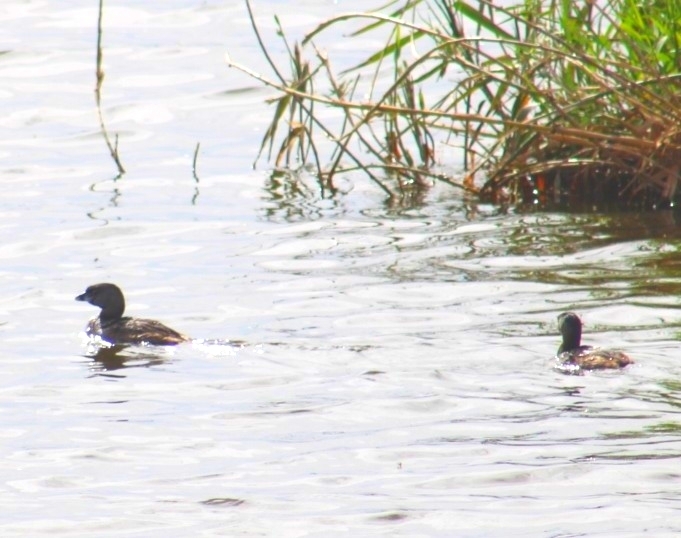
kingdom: Animalia
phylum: Chordata
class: Aves
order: Podicipediformes
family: Podicipedidae
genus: Podilymbus
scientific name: Podilymbus podiceps
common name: Pied-billed grebe
